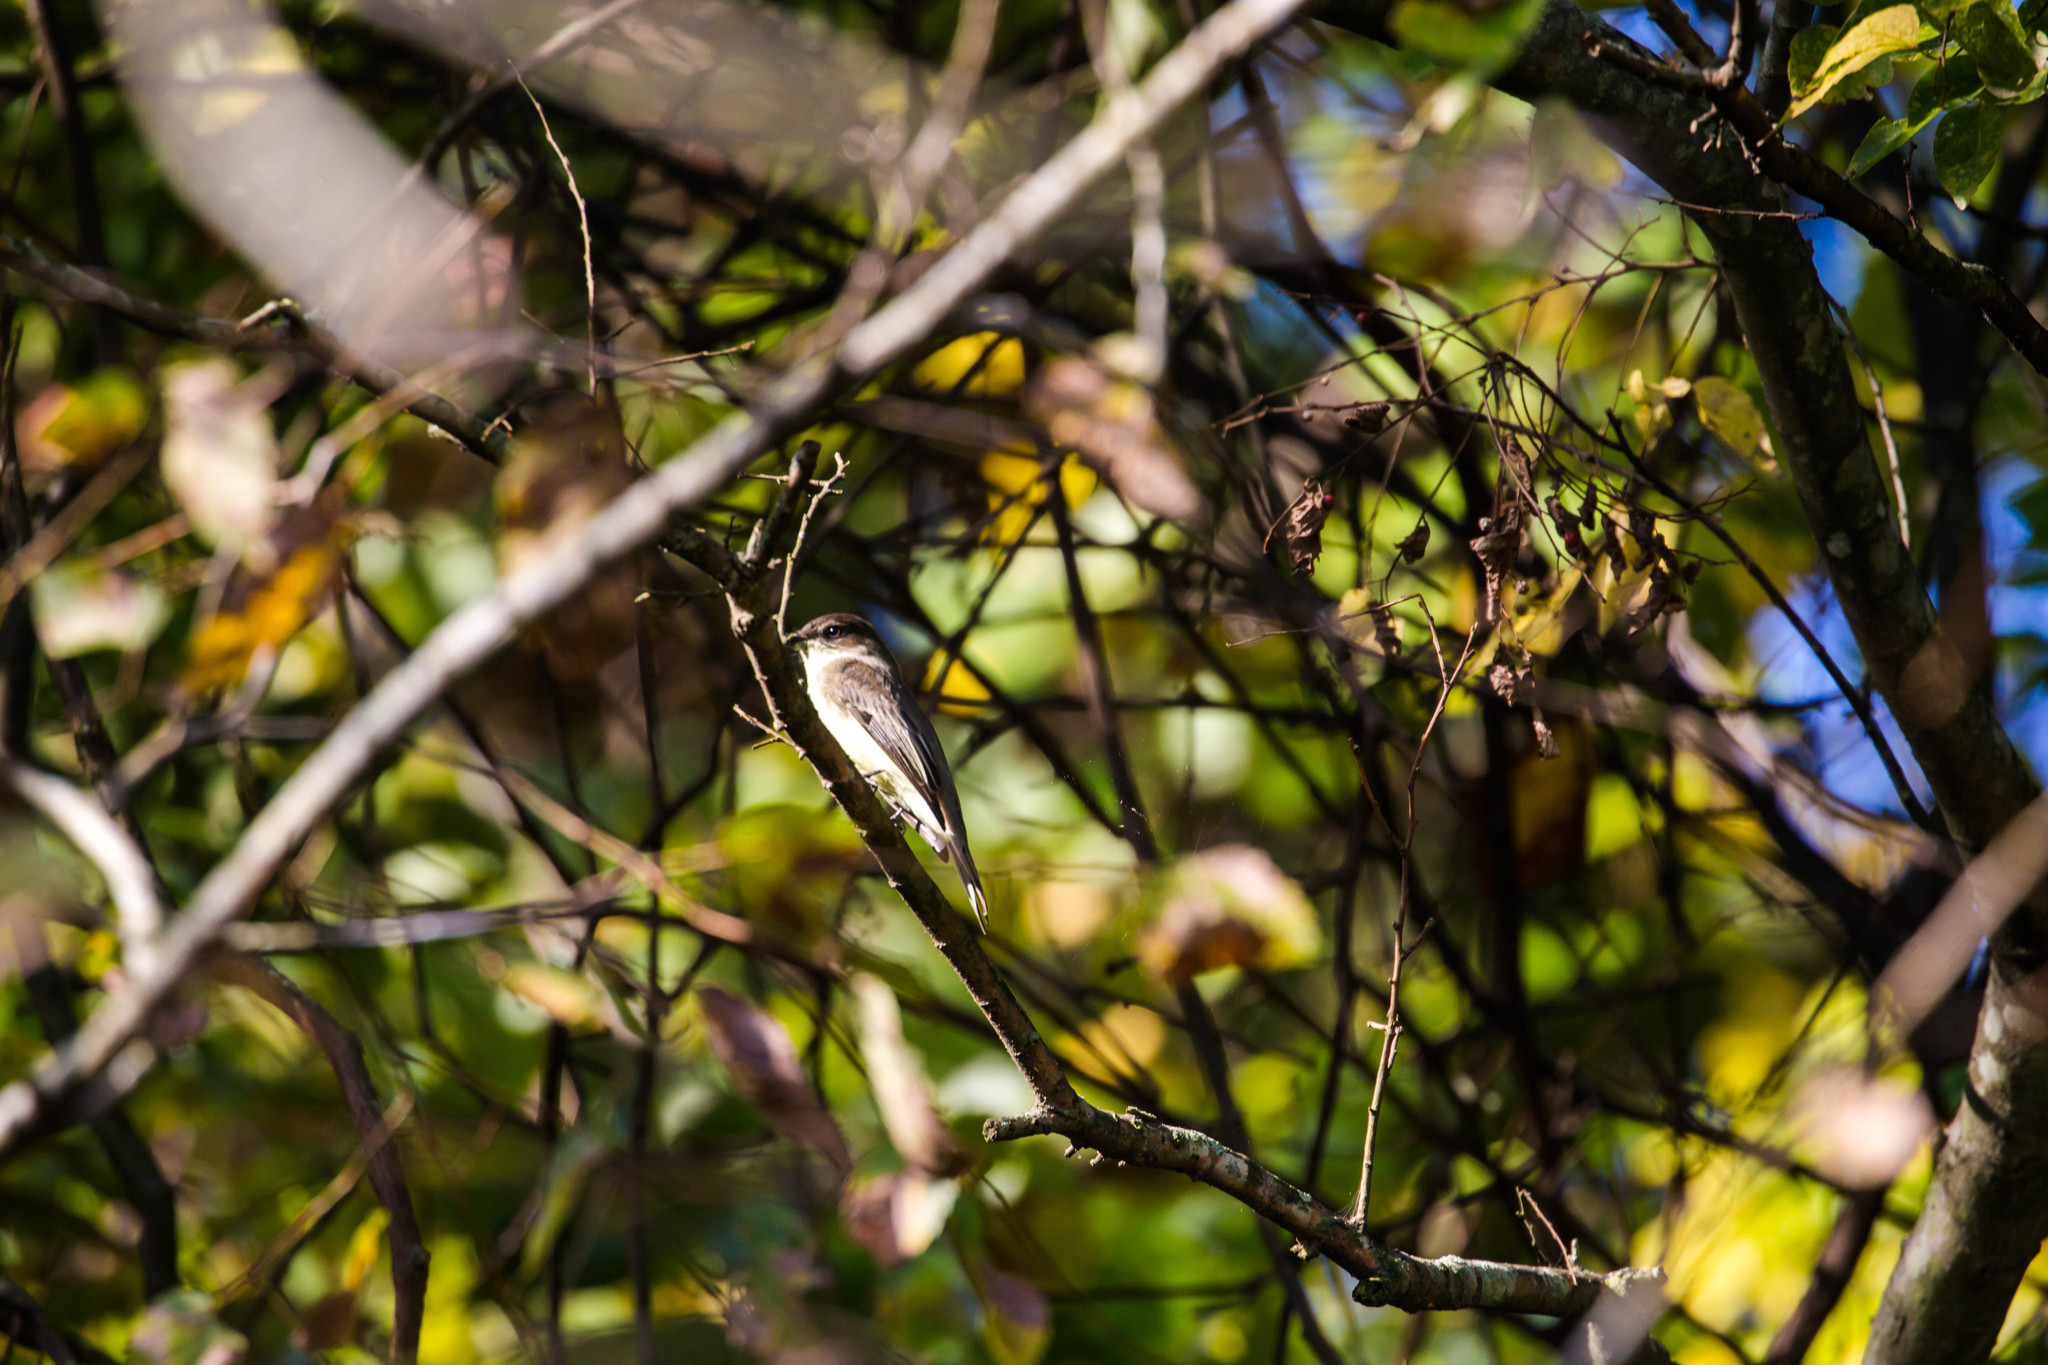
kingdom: Animalia
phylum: Chordata
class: Aves
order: Passeriformes
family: Tyrannidae
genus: Sayornis
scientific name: Sayornis phoebe
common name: Eastern phoebe
